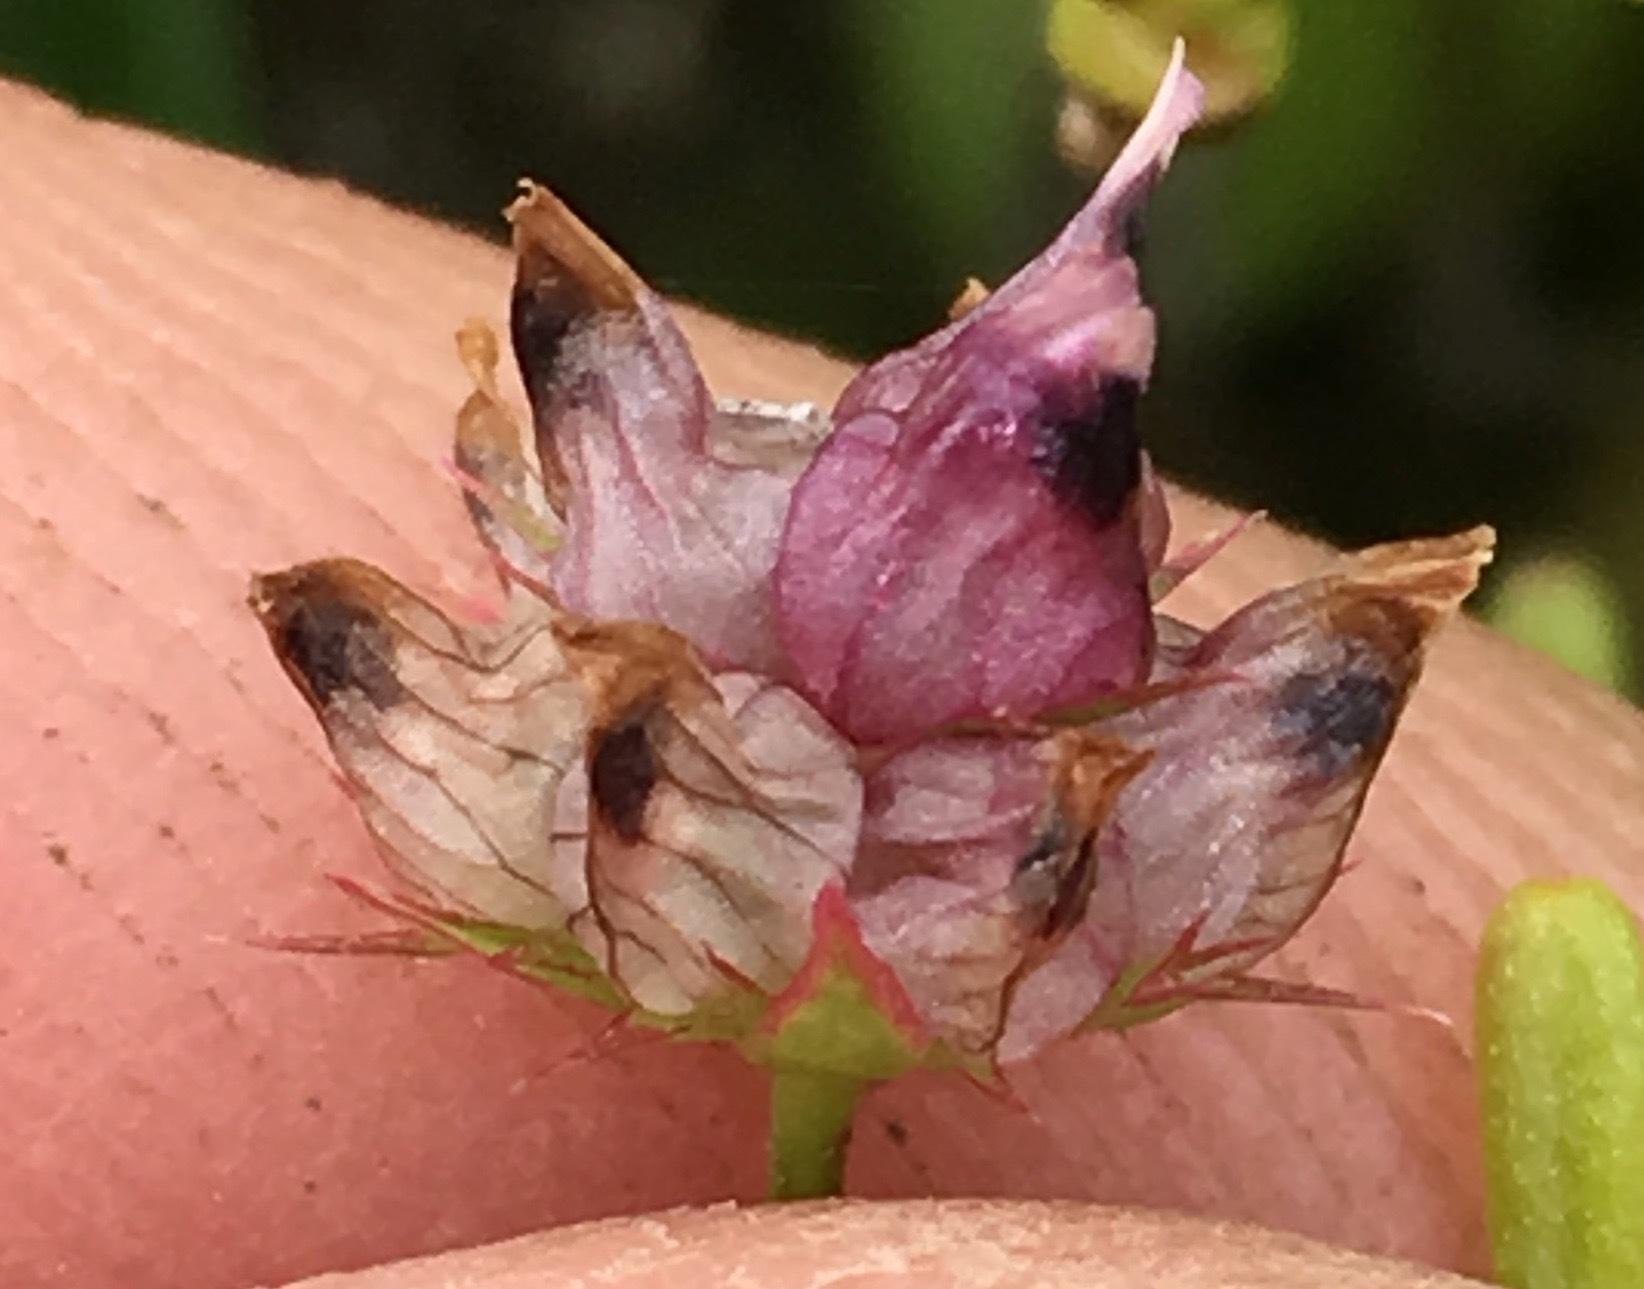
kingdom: Plantae
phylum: Tracheophyta
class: Magnoliopsida
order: Fabales
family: Fabaceae
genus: Trifolium
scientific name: Trifolium depauperatum
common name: Poverty clover
